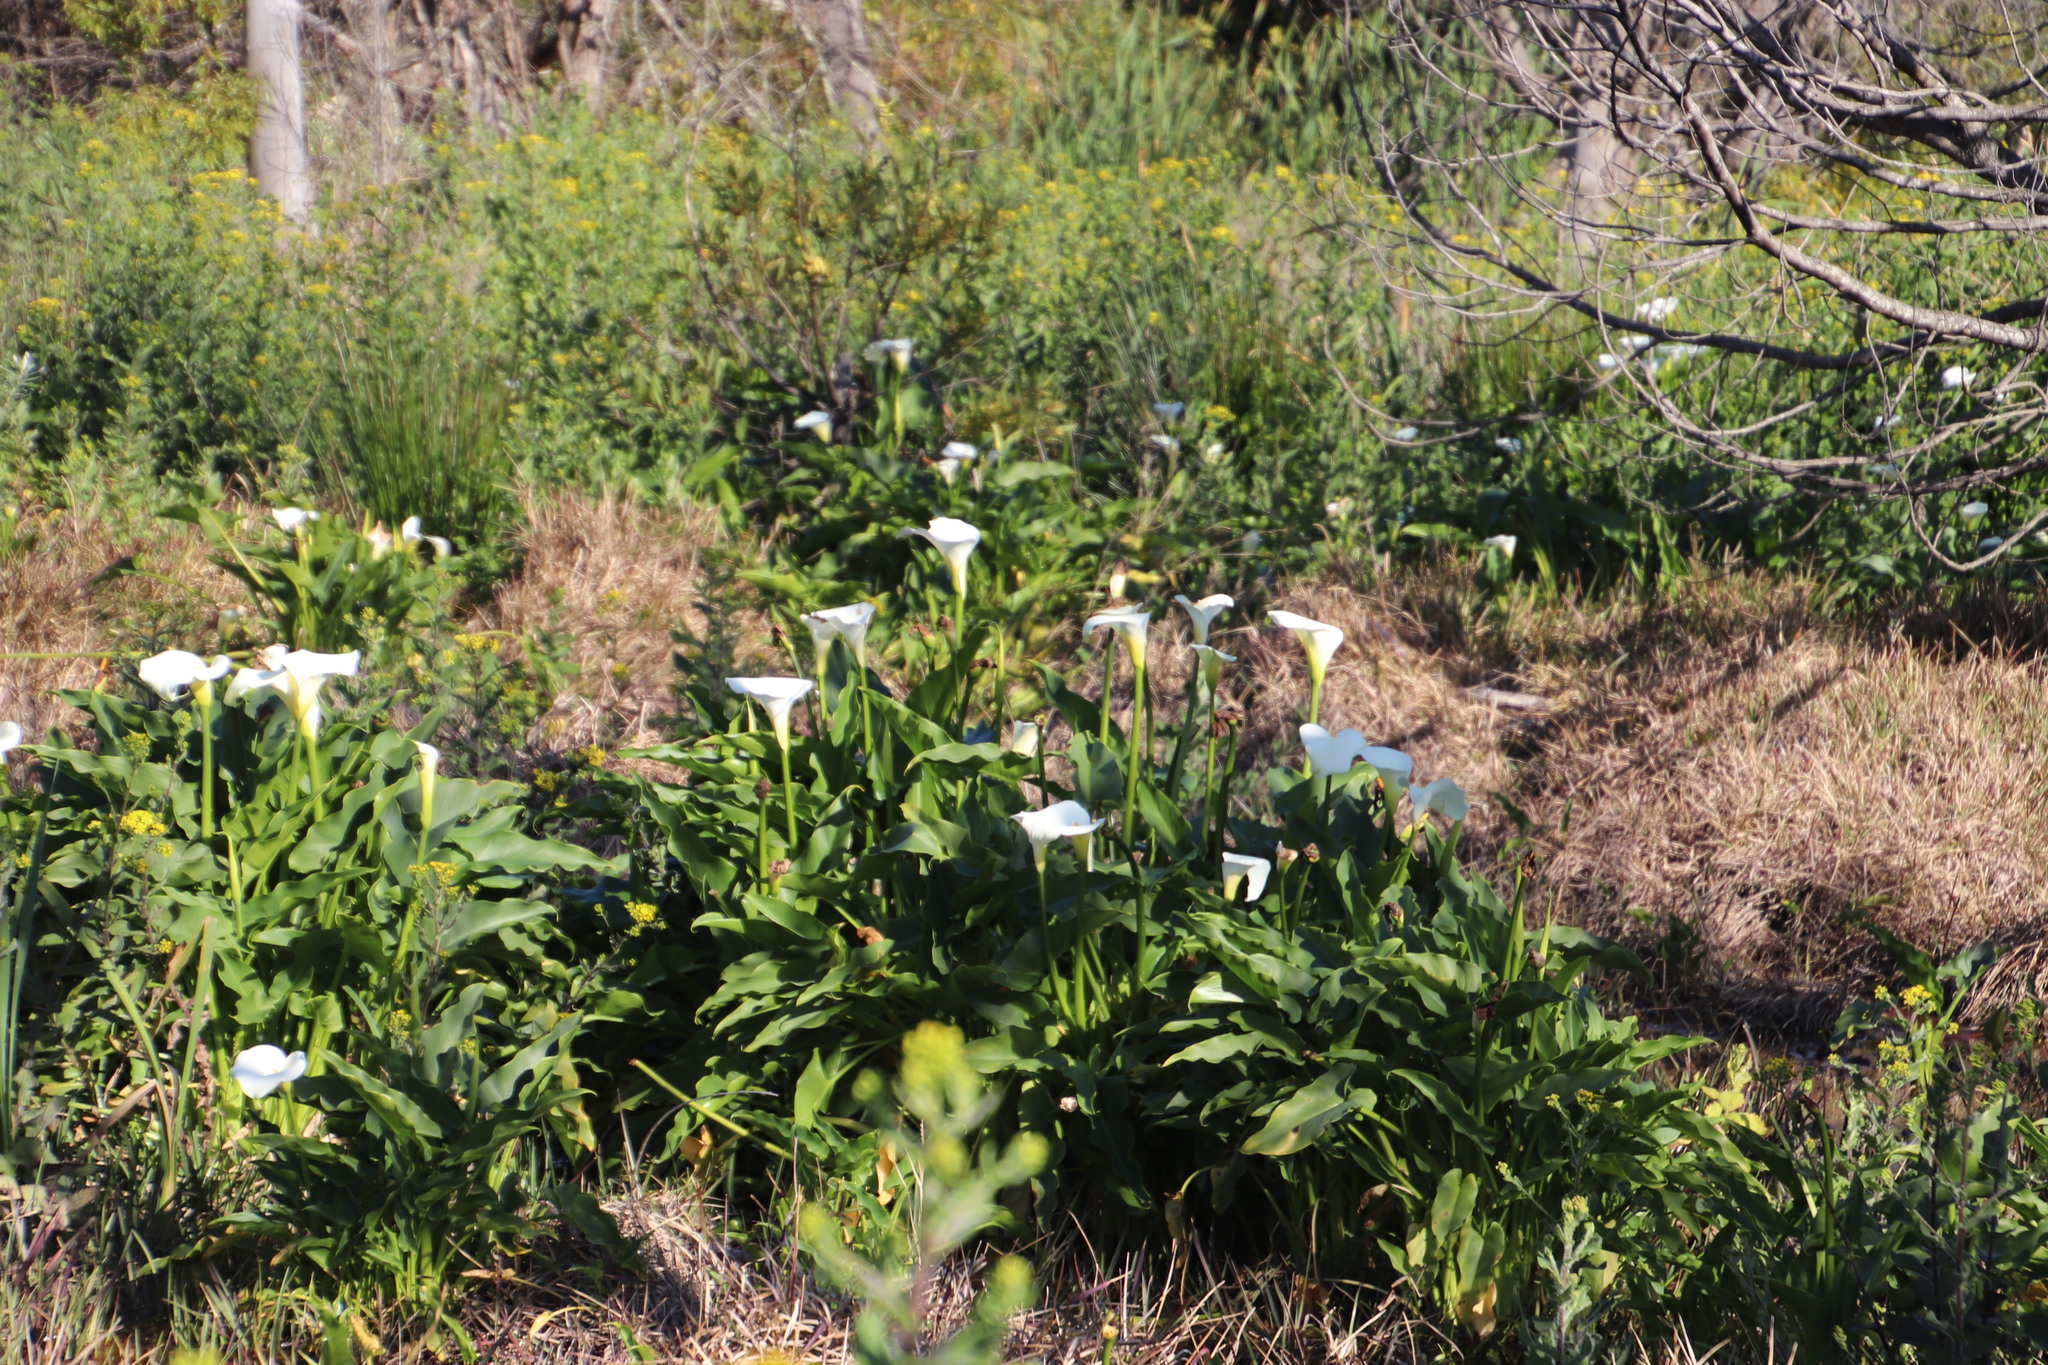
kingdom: Plantae
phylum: Tracheophyta
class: Liliopsida
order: Alismatales
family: Araceae
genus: Zantedeschia
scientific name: Zantedeschia aethiopica
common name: Altar-lily
